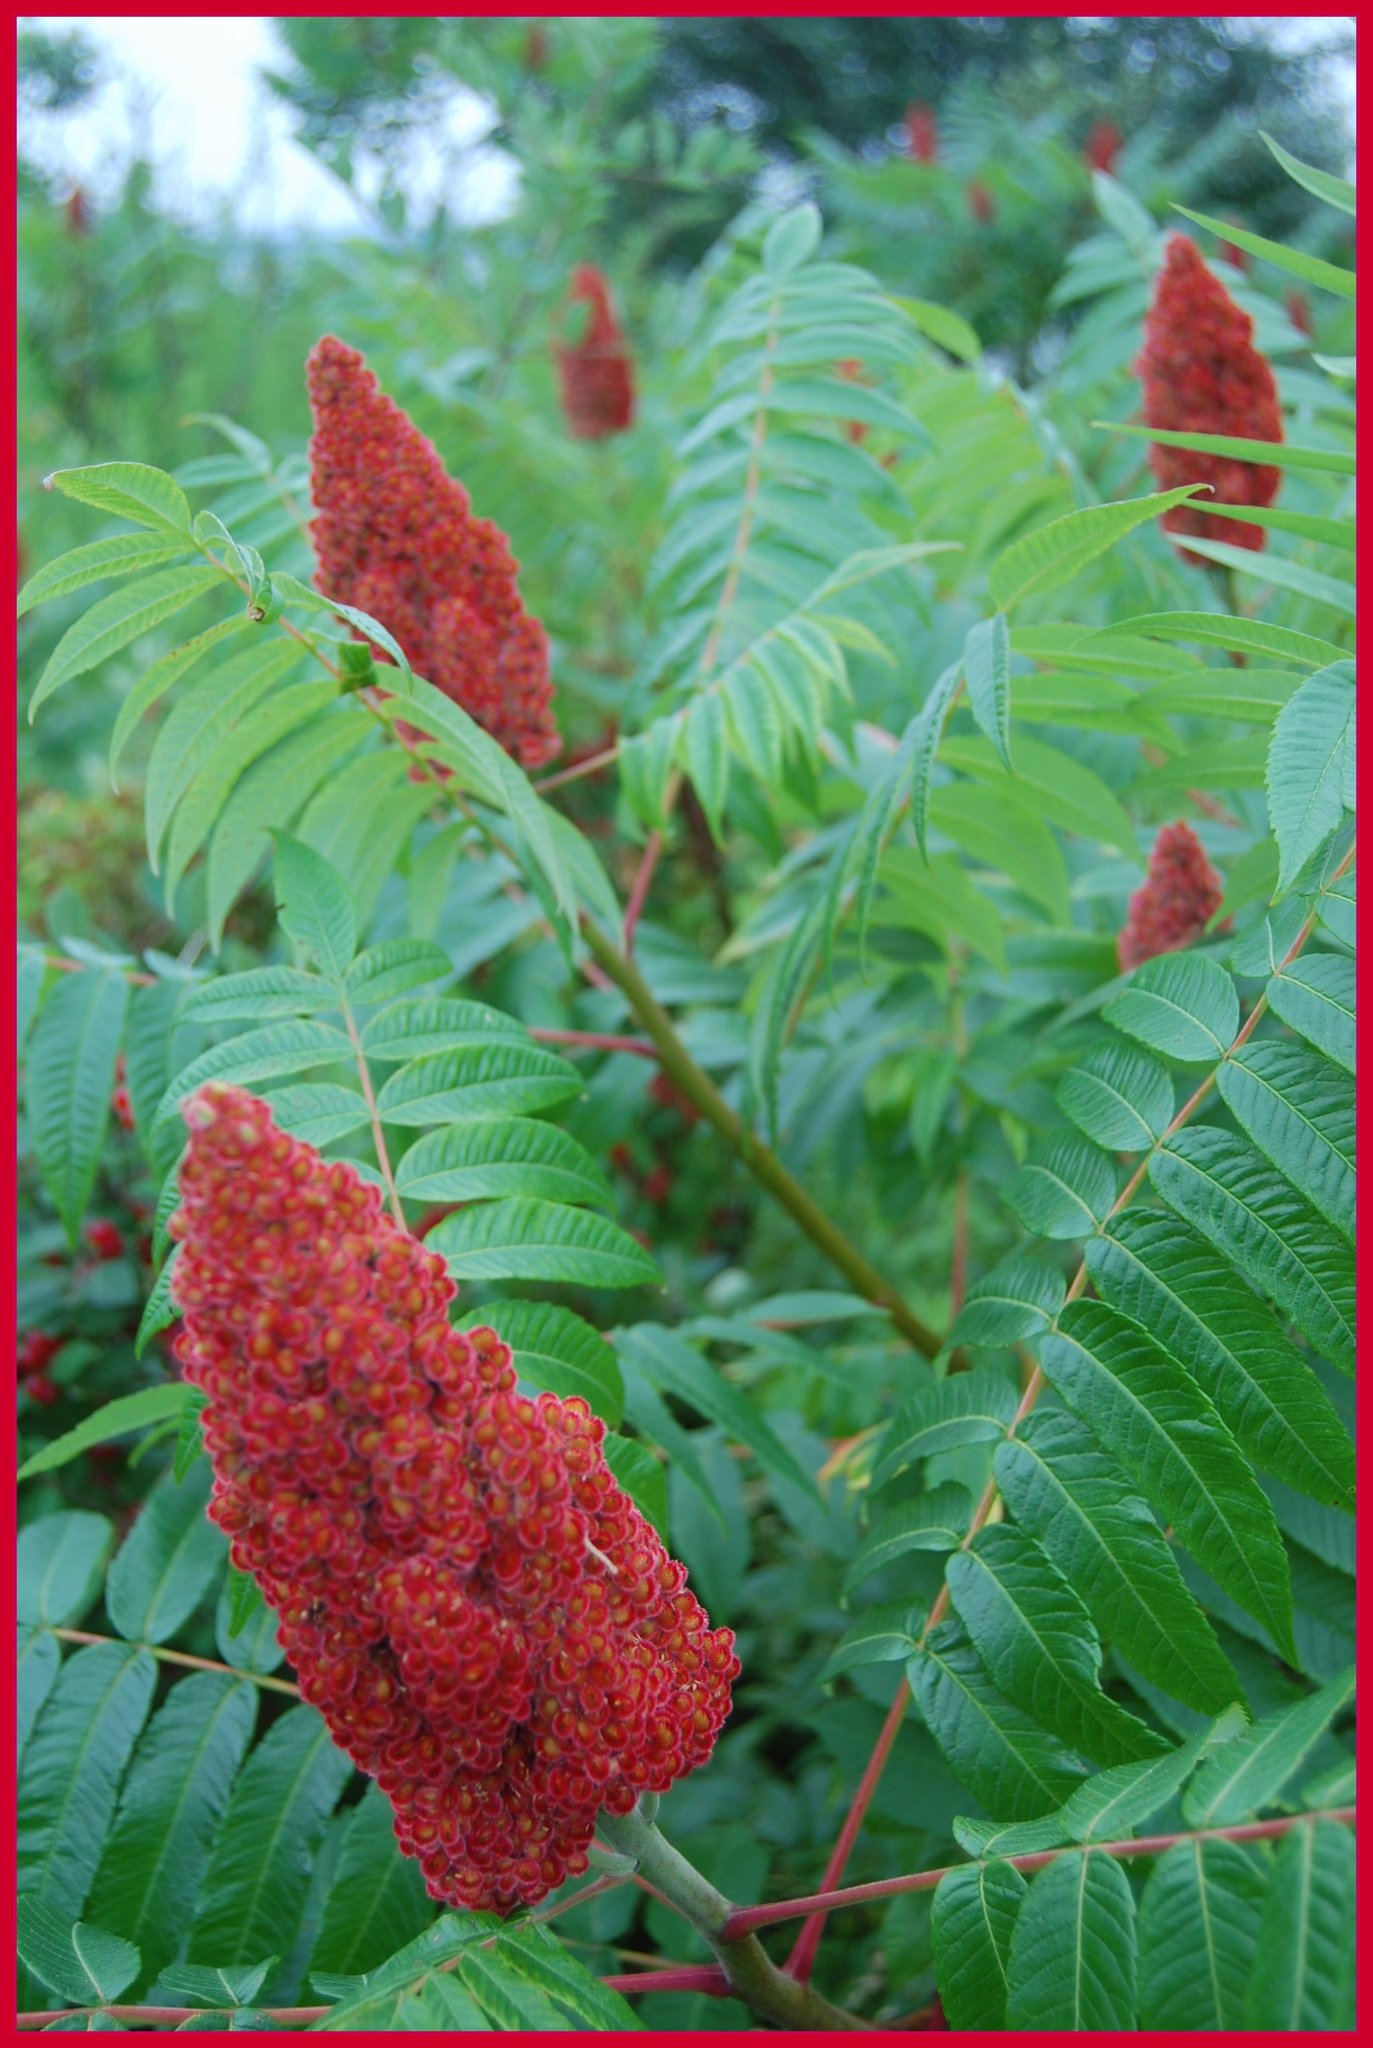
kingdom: Plantae
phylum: Tracheophyta
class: Magnoliopsida
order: Sapindales
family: Anacardiaceae
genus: Rhus
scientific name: Rhus typhina
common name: Staghorn sumac
